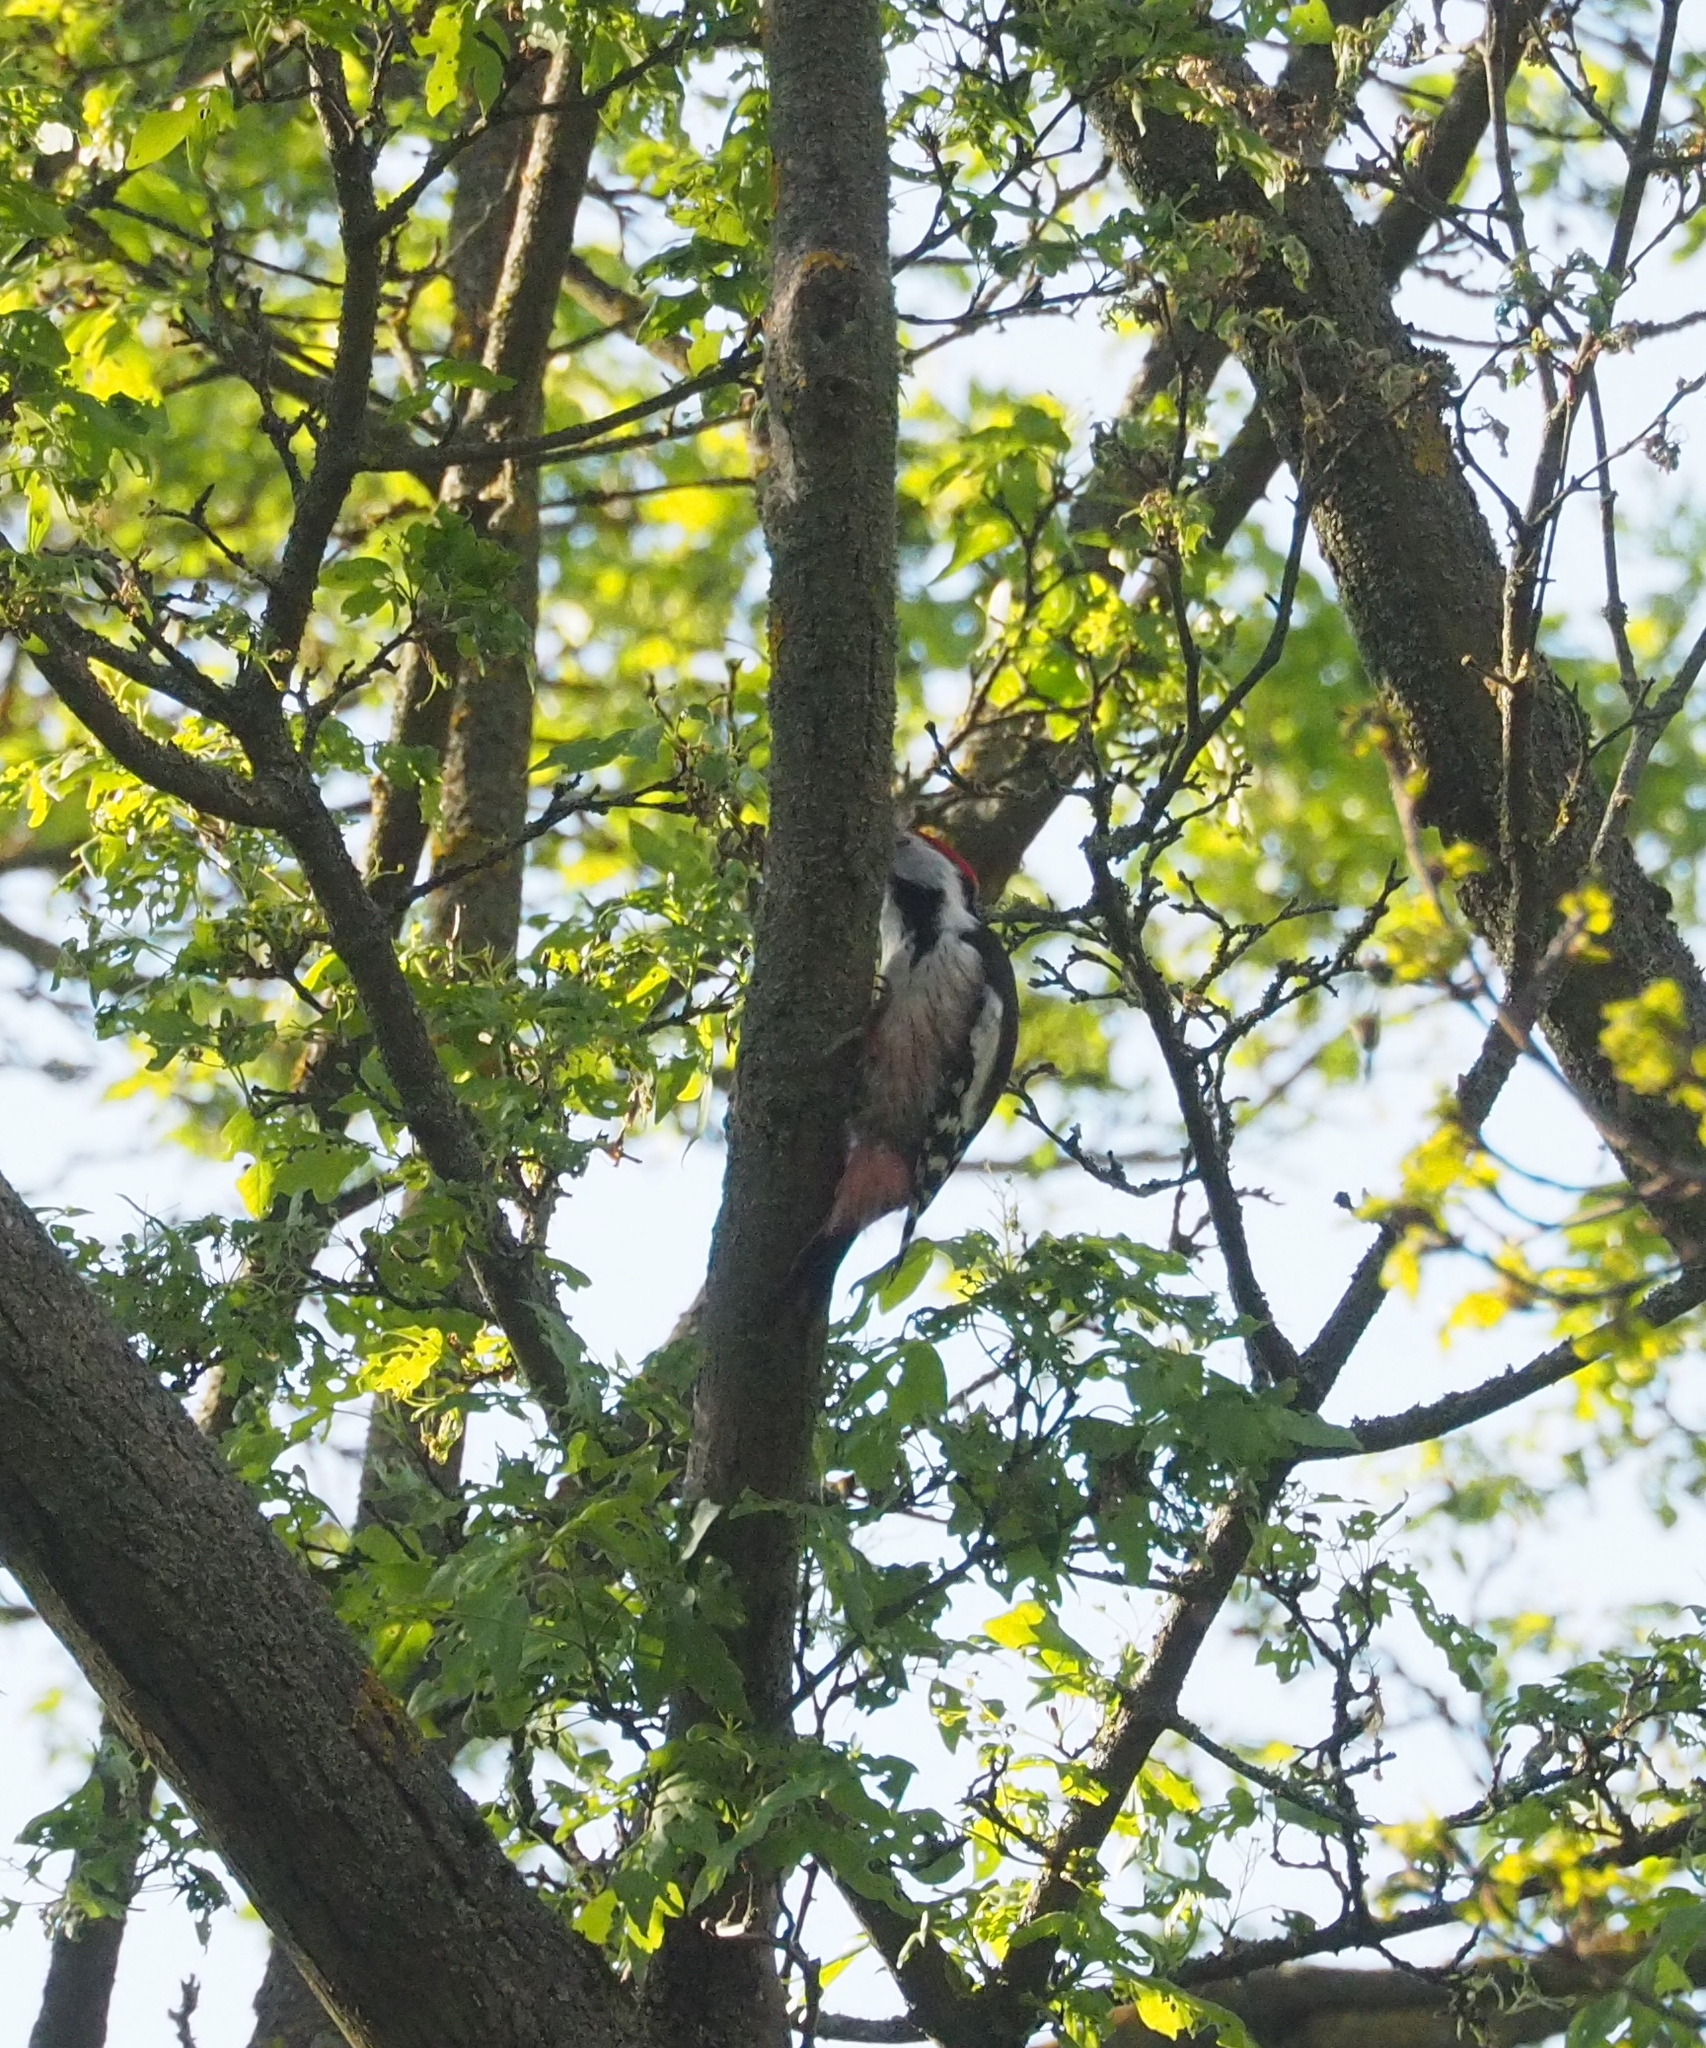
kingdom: Animalia
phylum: Chordata
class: Aves
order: Piciformes
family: Picidae
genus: Dendrocoptes
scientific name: Dendrocoptes medius
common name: Middle spotted woodpecker
